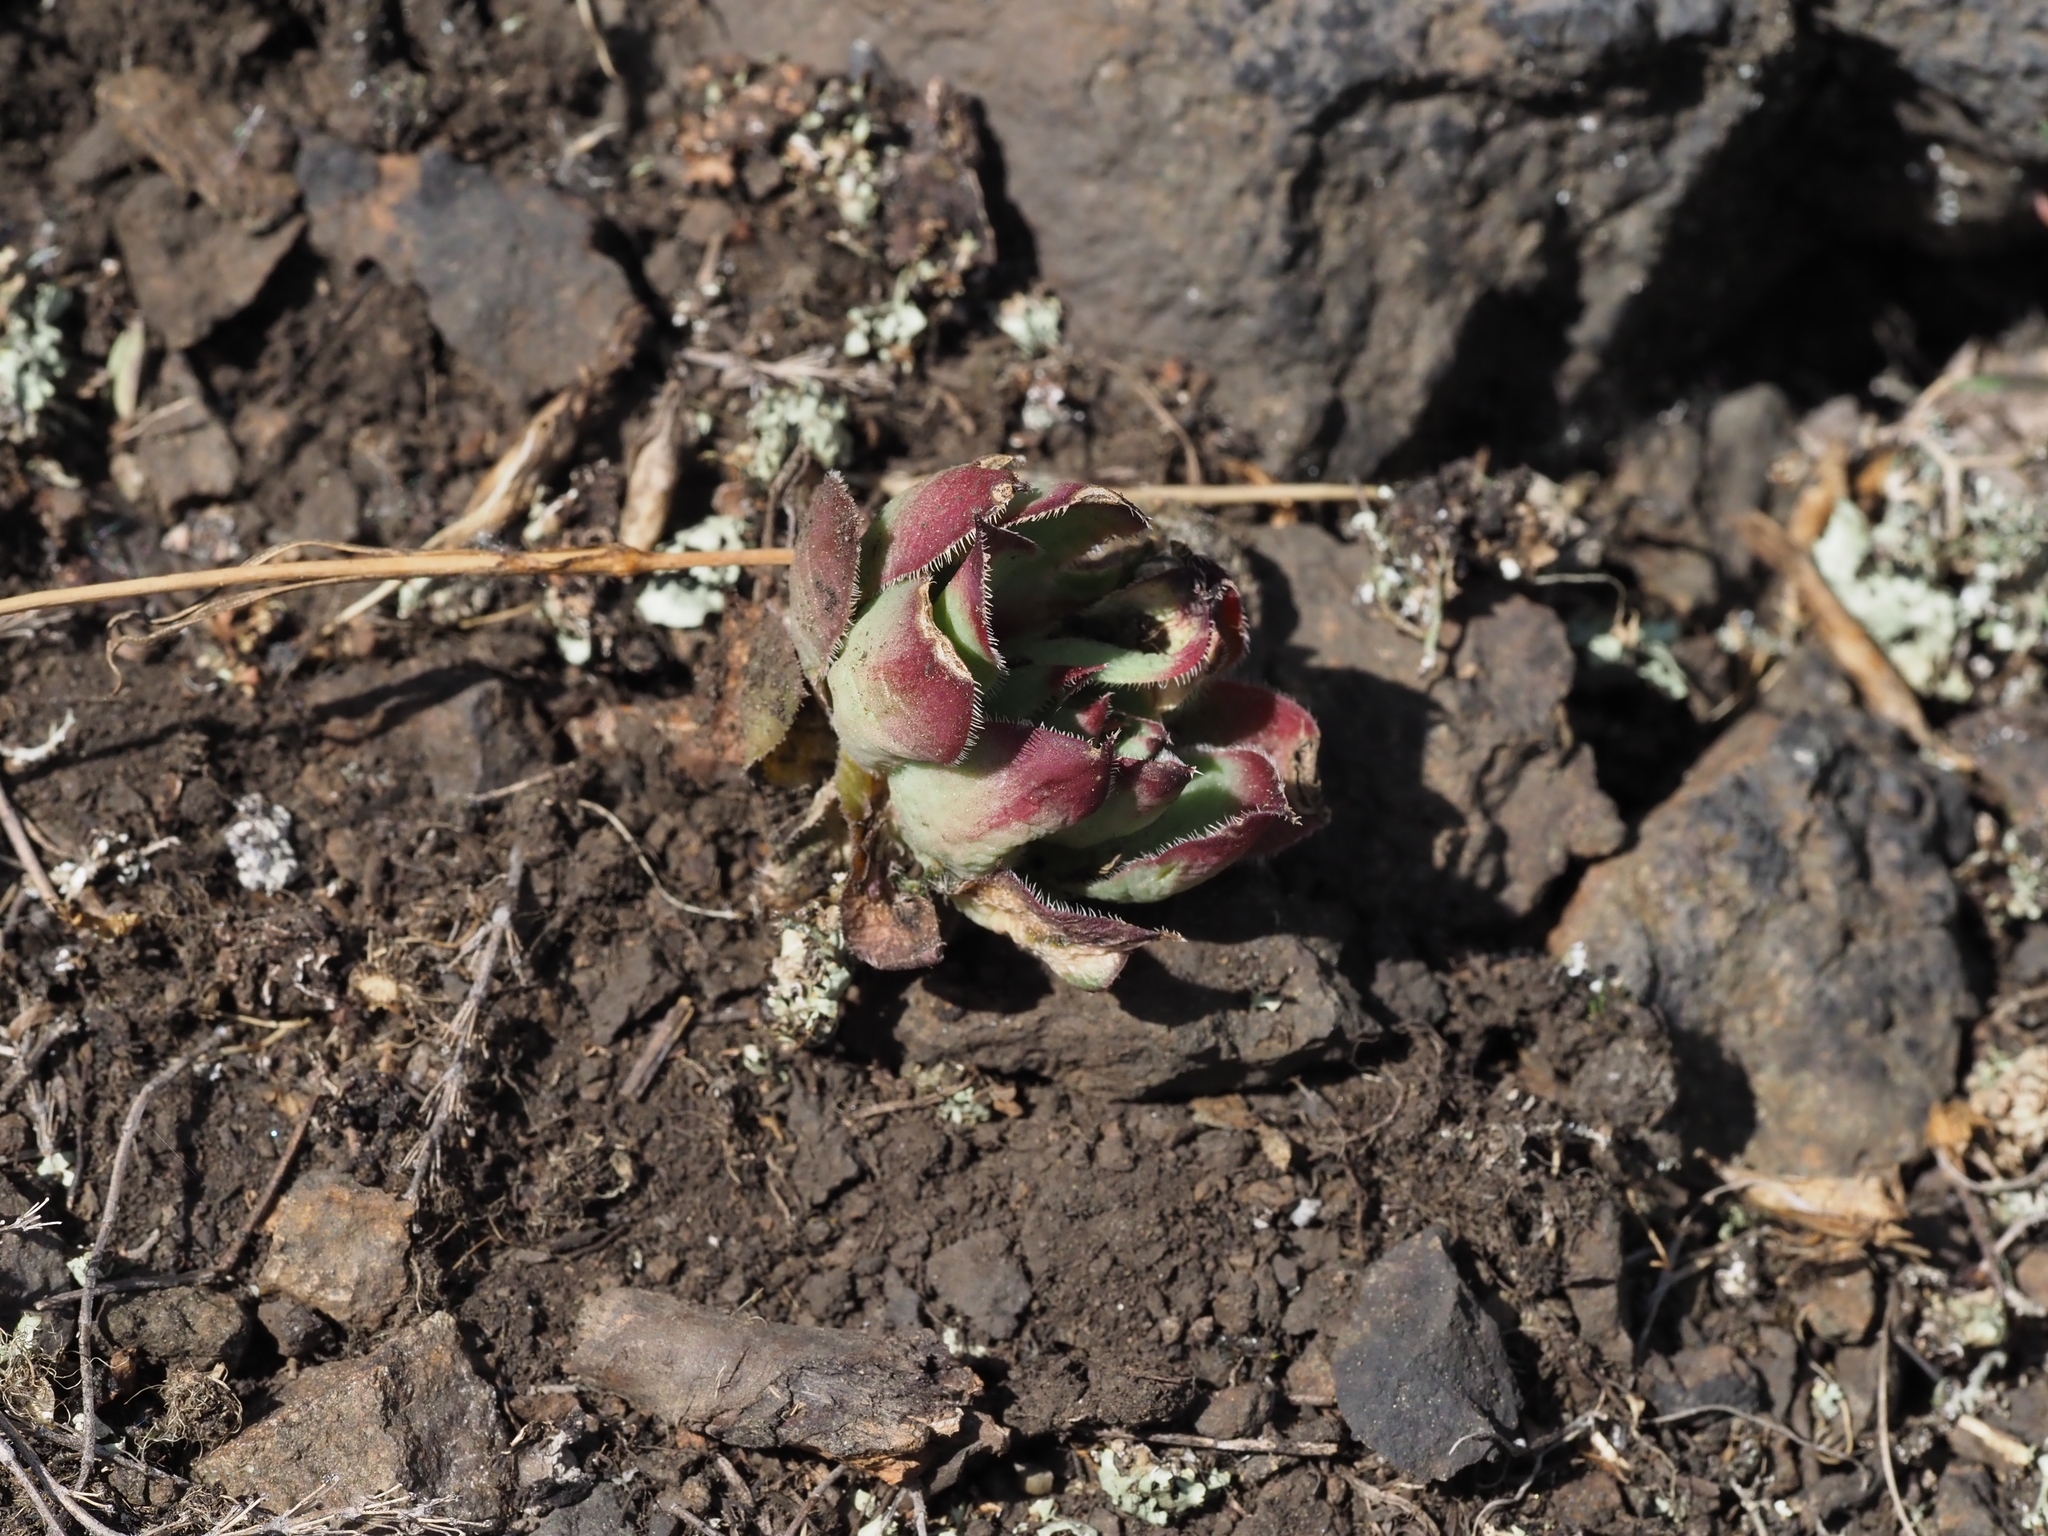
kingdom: Plantae
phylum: Tracheophyta
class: Magnoliopsida
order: Saxifragales
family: Crassulaceae
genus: Sempervivum
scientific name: Sempervivum tectorum
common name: House-leek
